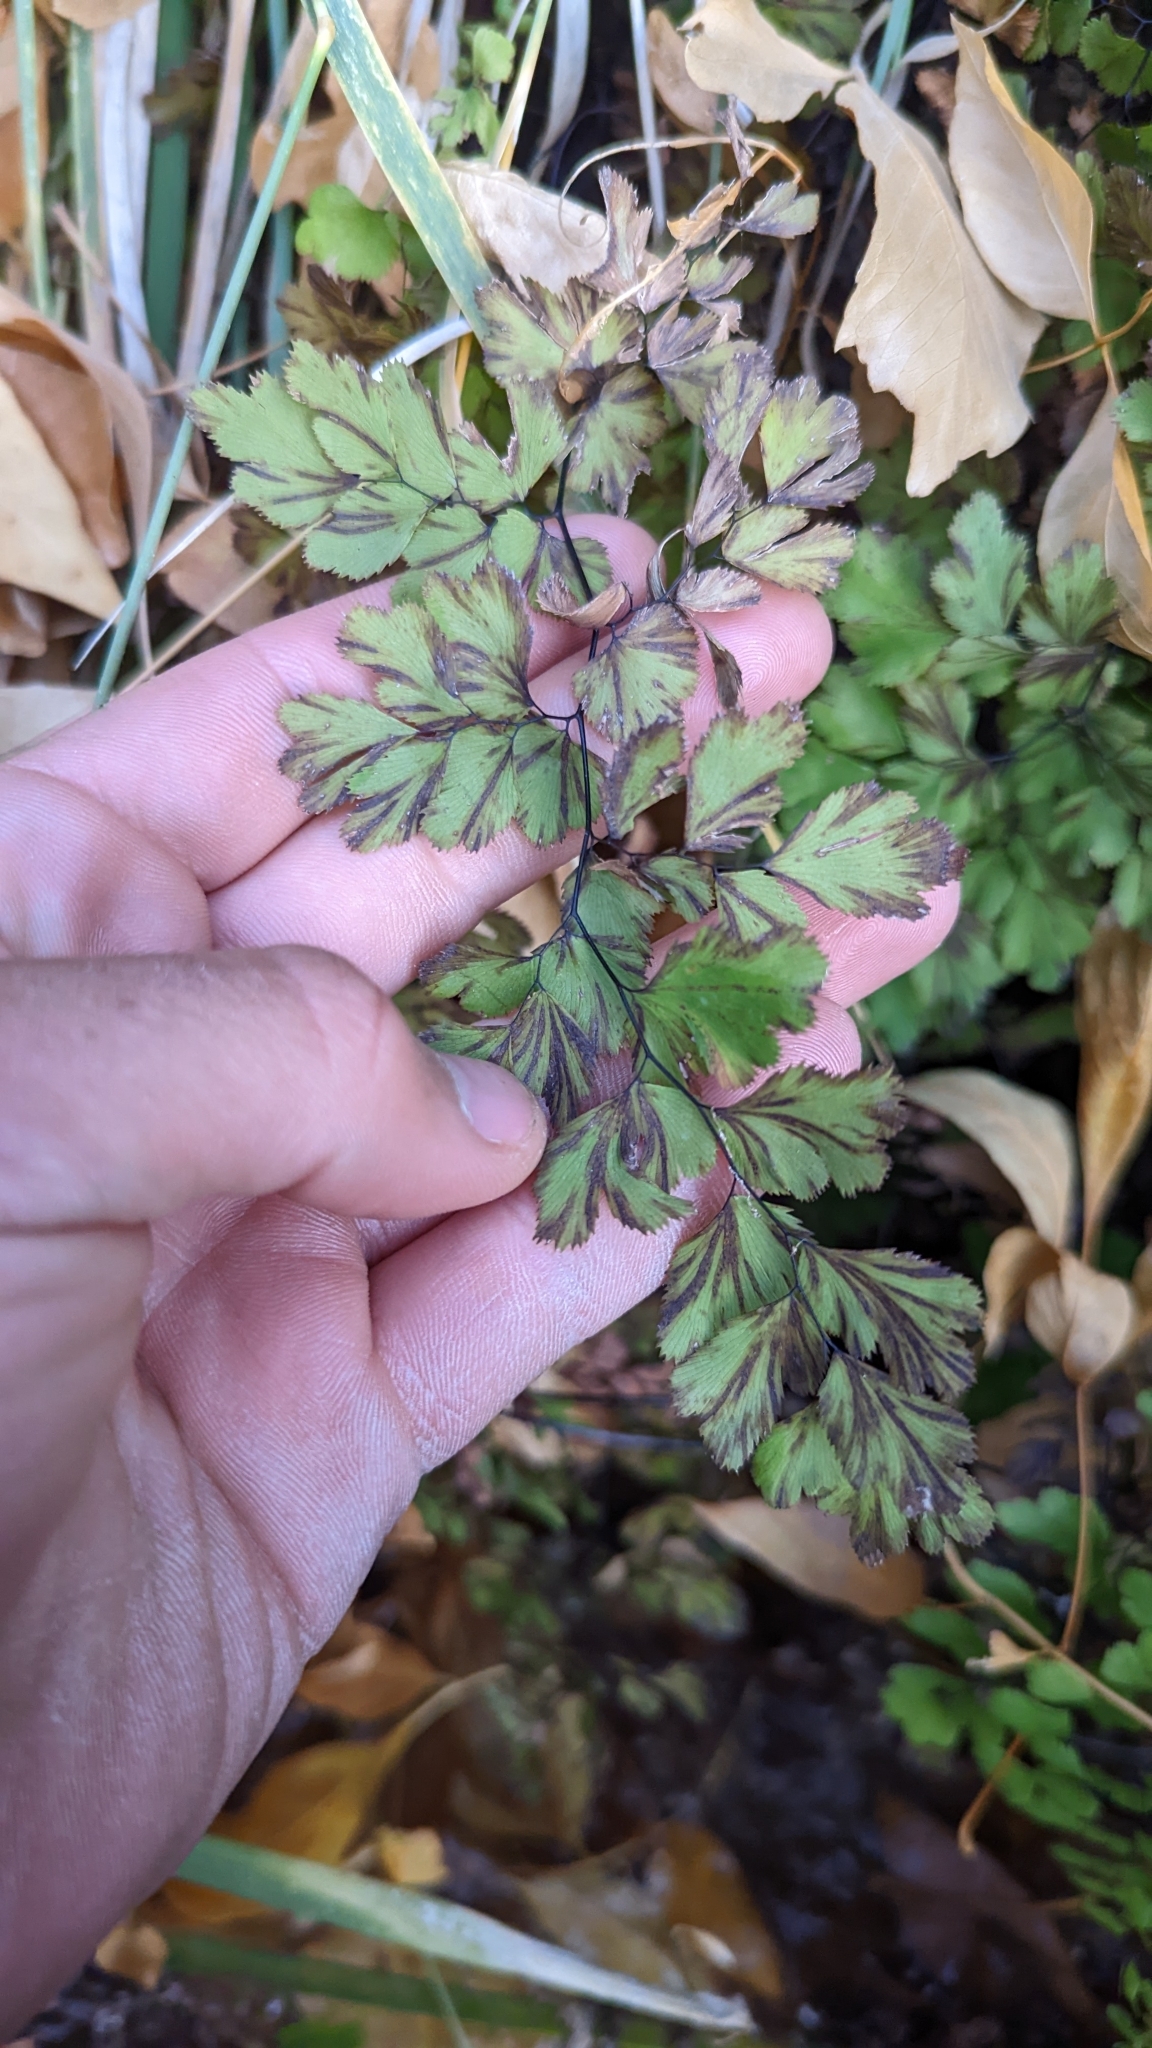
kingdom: Plantae
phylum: Tracheophyta
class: Polypodiopsida
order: Polypodiales
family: Pteridaceae
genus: Adiantum
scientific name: Adiantum capillus-veneris
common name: Maidenhair fern
